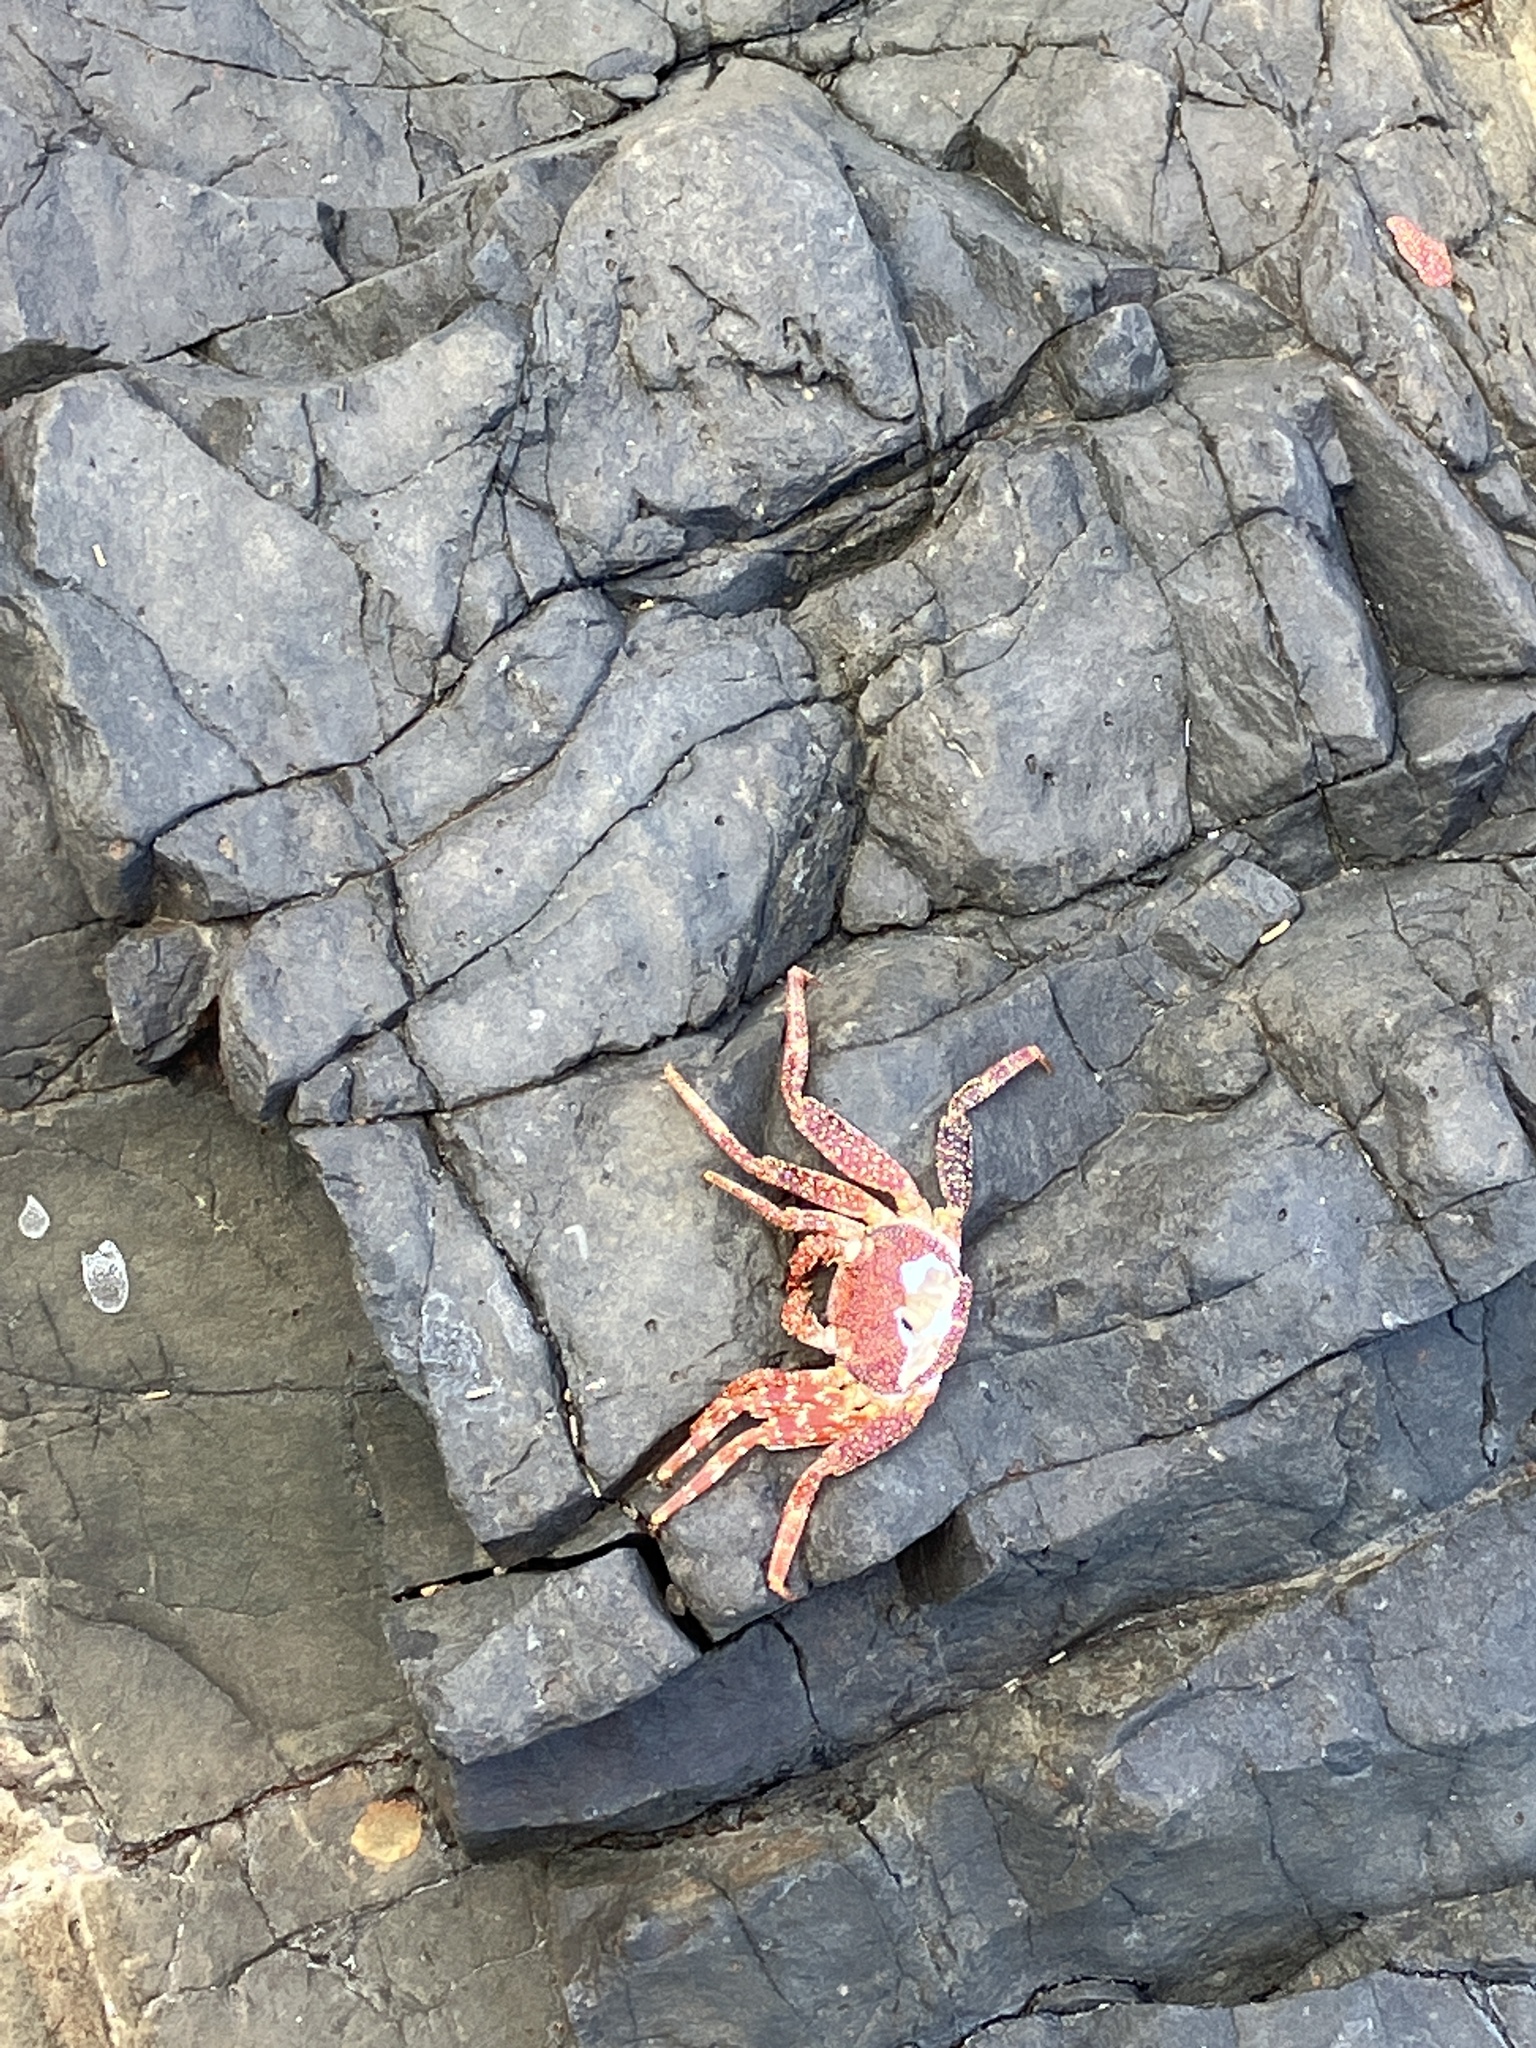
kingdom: Animalia
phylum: Arthropoda
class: Malacostraca
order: Decapoda
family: Grapsidae
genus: Grapsus
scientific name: Grapsus adscensionis
